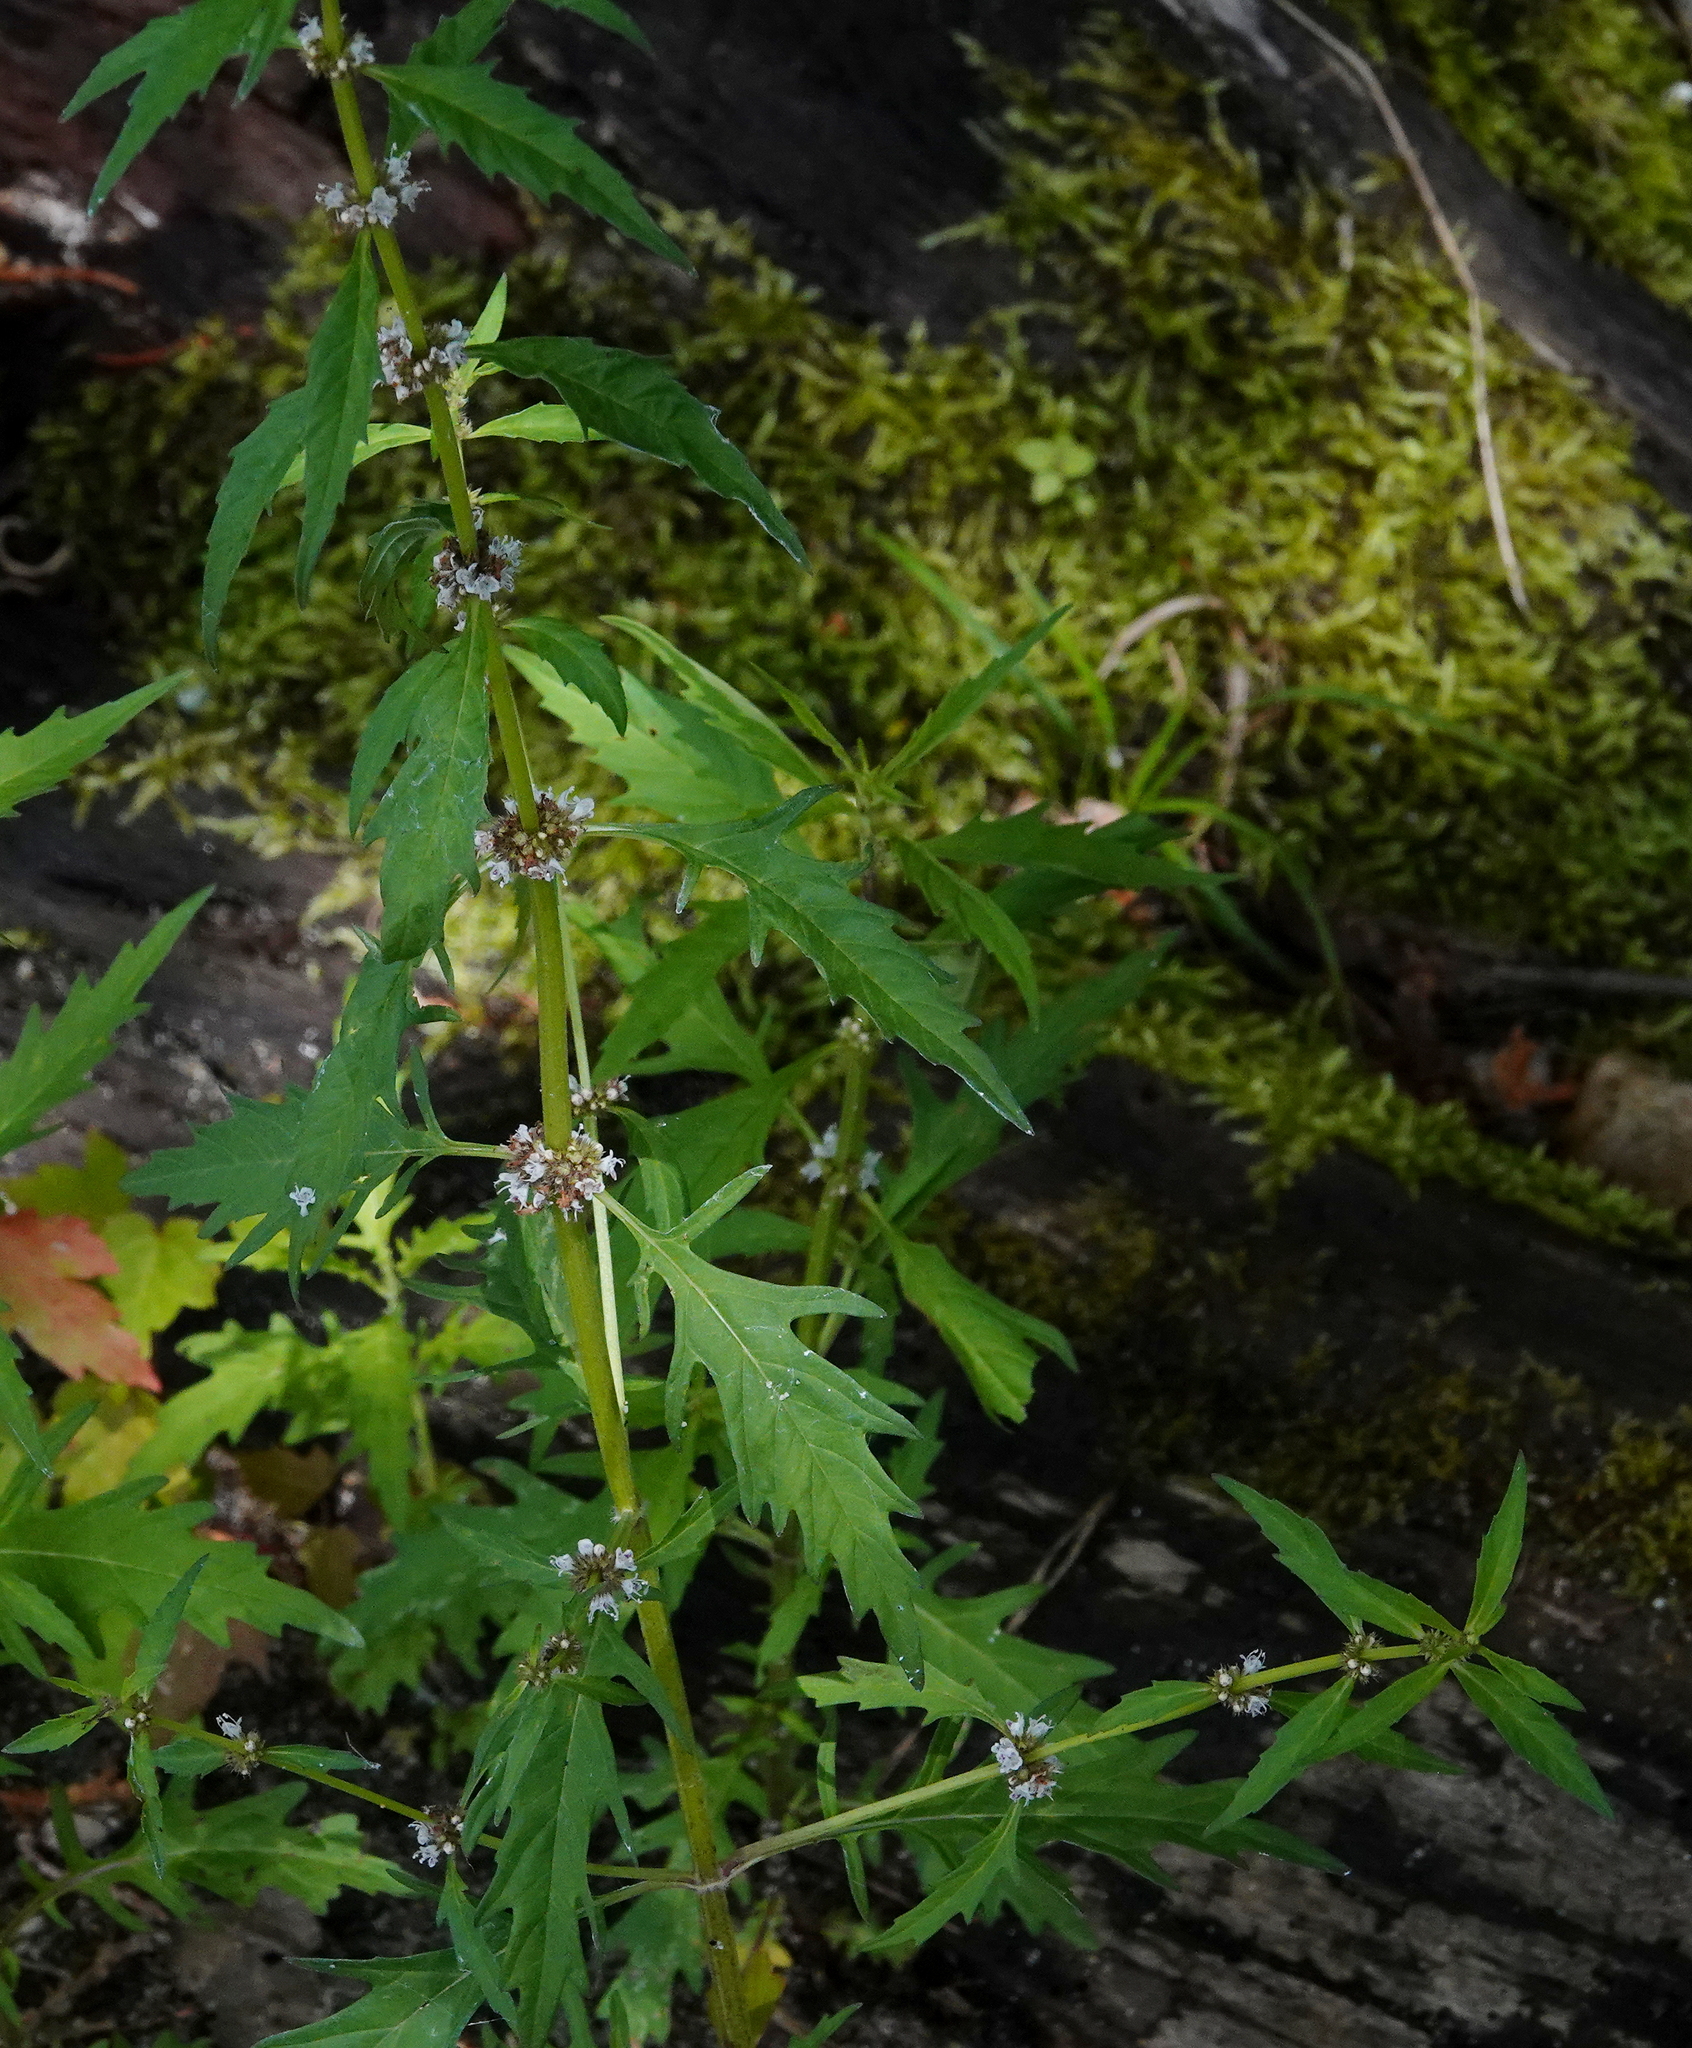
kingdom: Plantae
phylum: Tracheophyta
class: Magnoliopsida
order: Lamiales
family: Lamiaceae
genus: Lycopus
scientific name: Lycopus americanus
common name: American bugleweed
